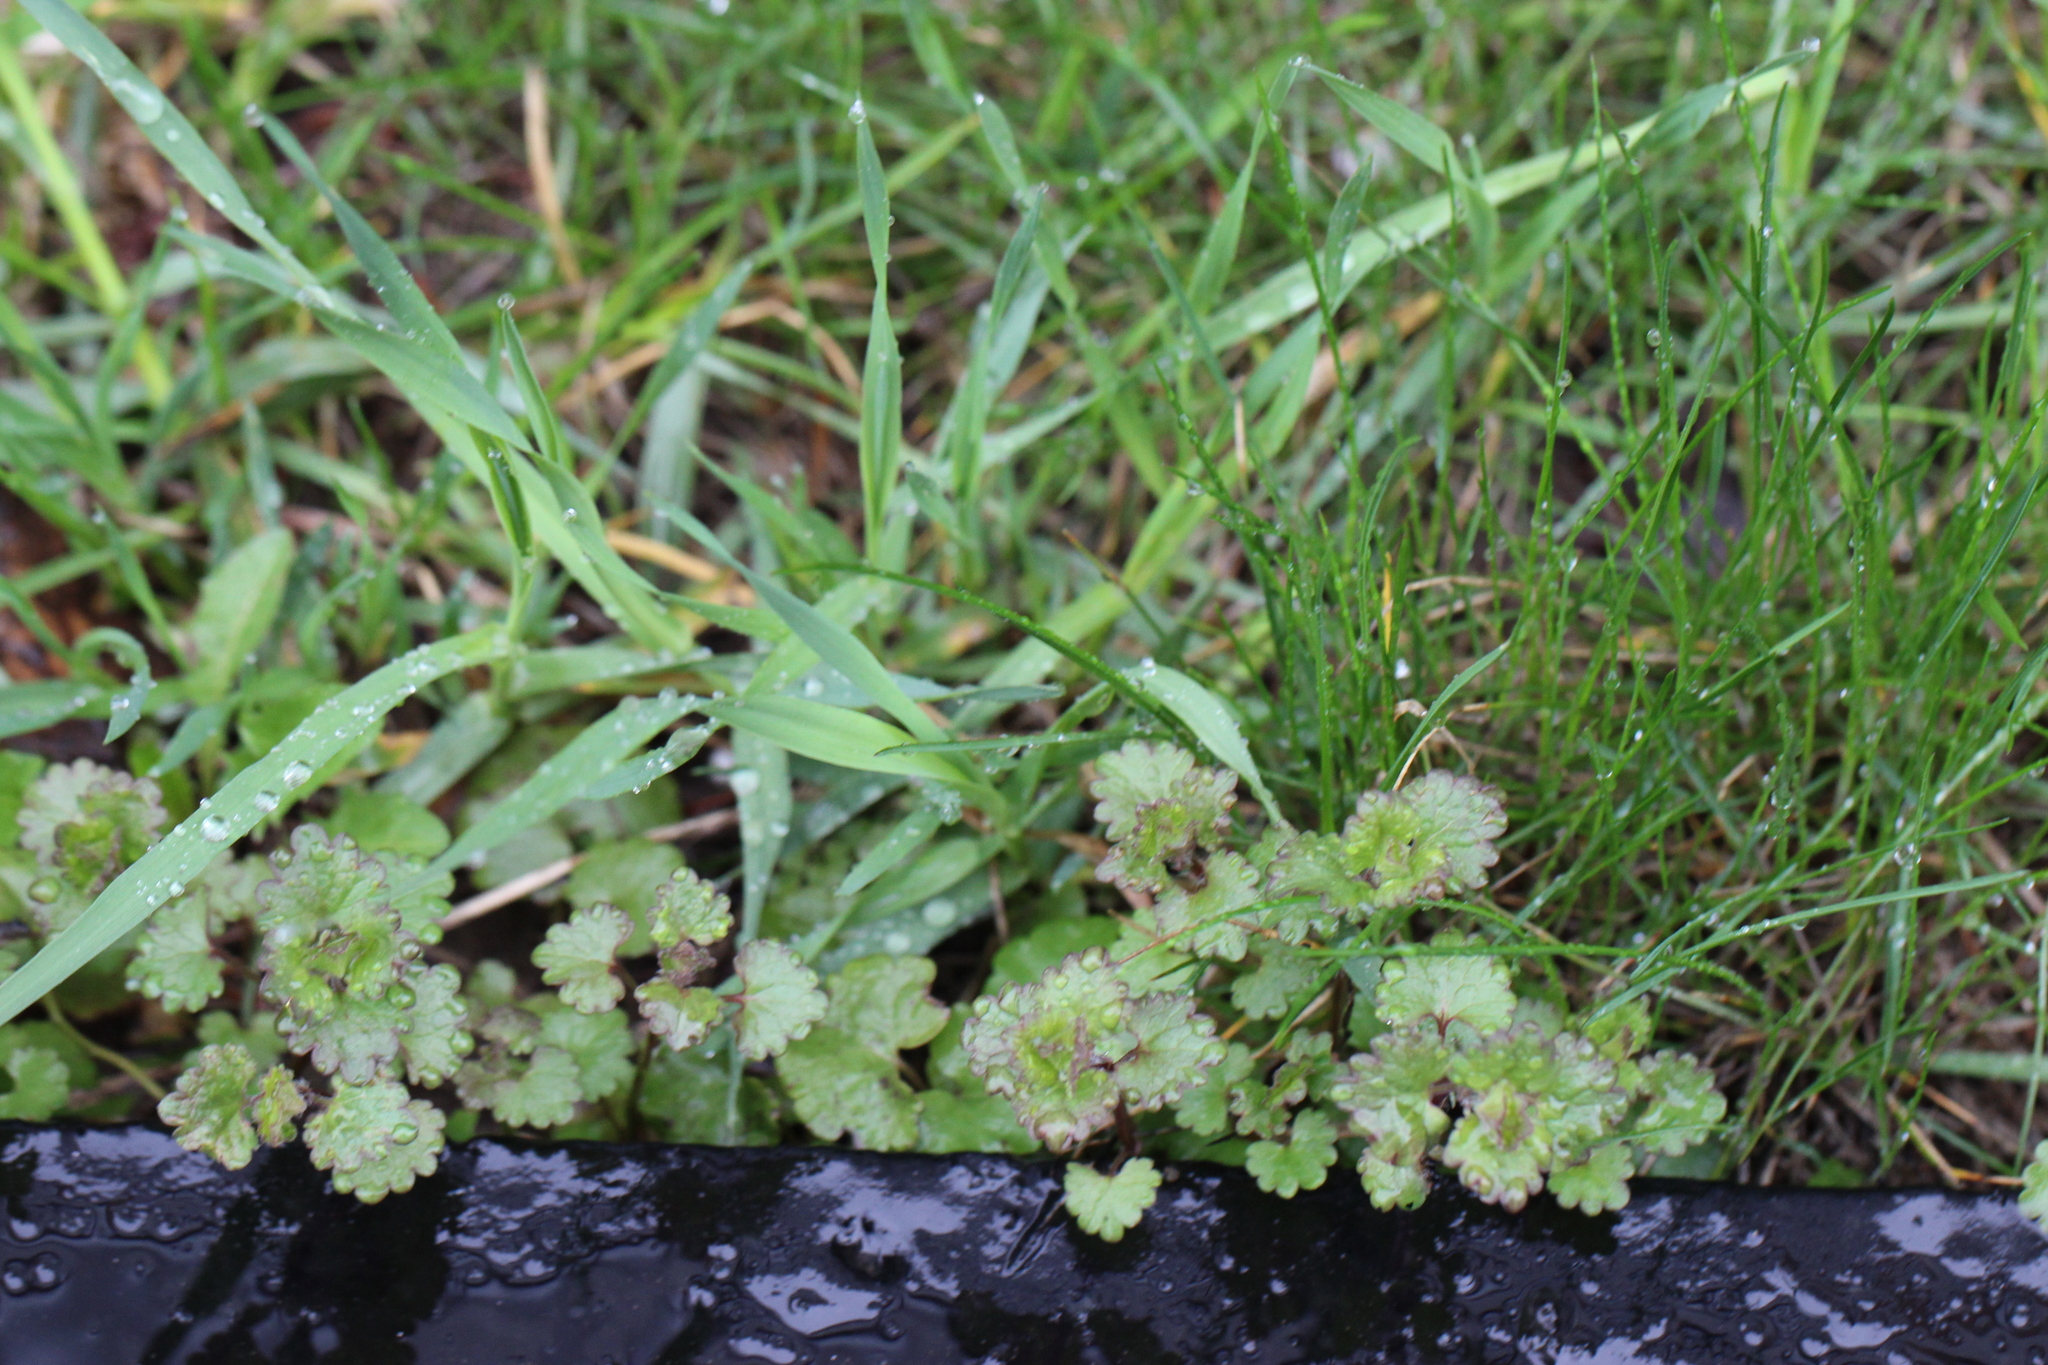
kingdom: Plantae
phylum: Tracheophyta
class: Magnoliopsida
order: Lamiales
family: Lamiaceae
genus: Glechoma
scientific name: Glechoma hederacea
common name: Ground ivy
